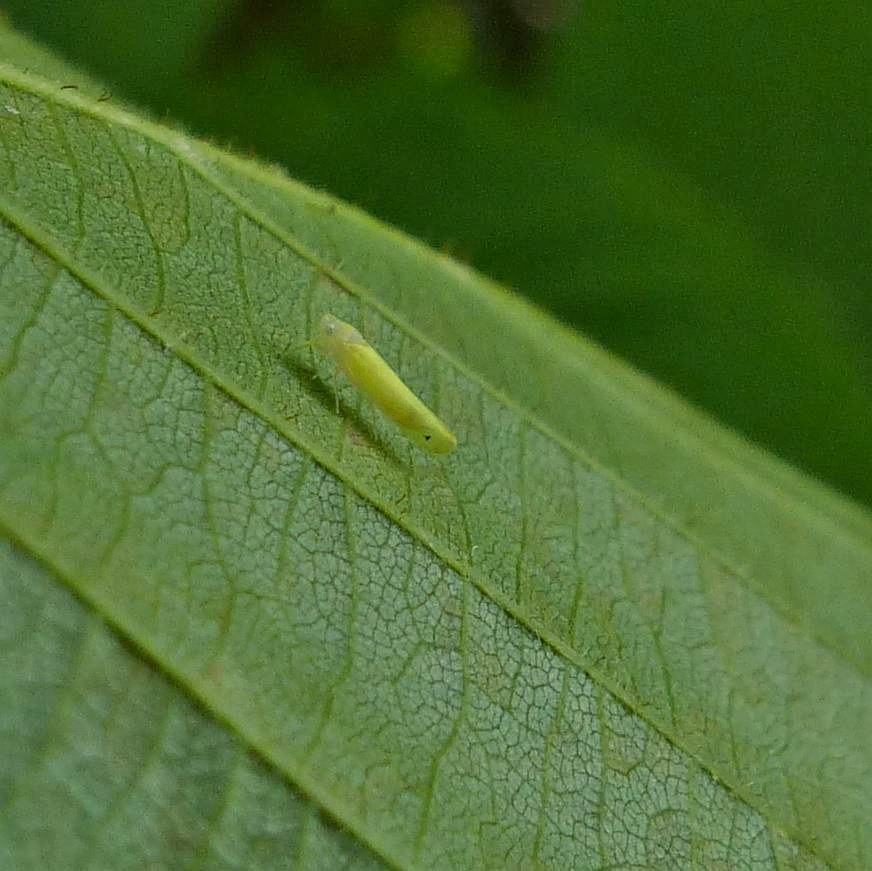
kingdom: Animalia
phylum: Arthropoda
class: Insecta
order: Hemiptera
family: Cicadellidae
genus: Dikrella
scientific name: Dikrella scimitar
